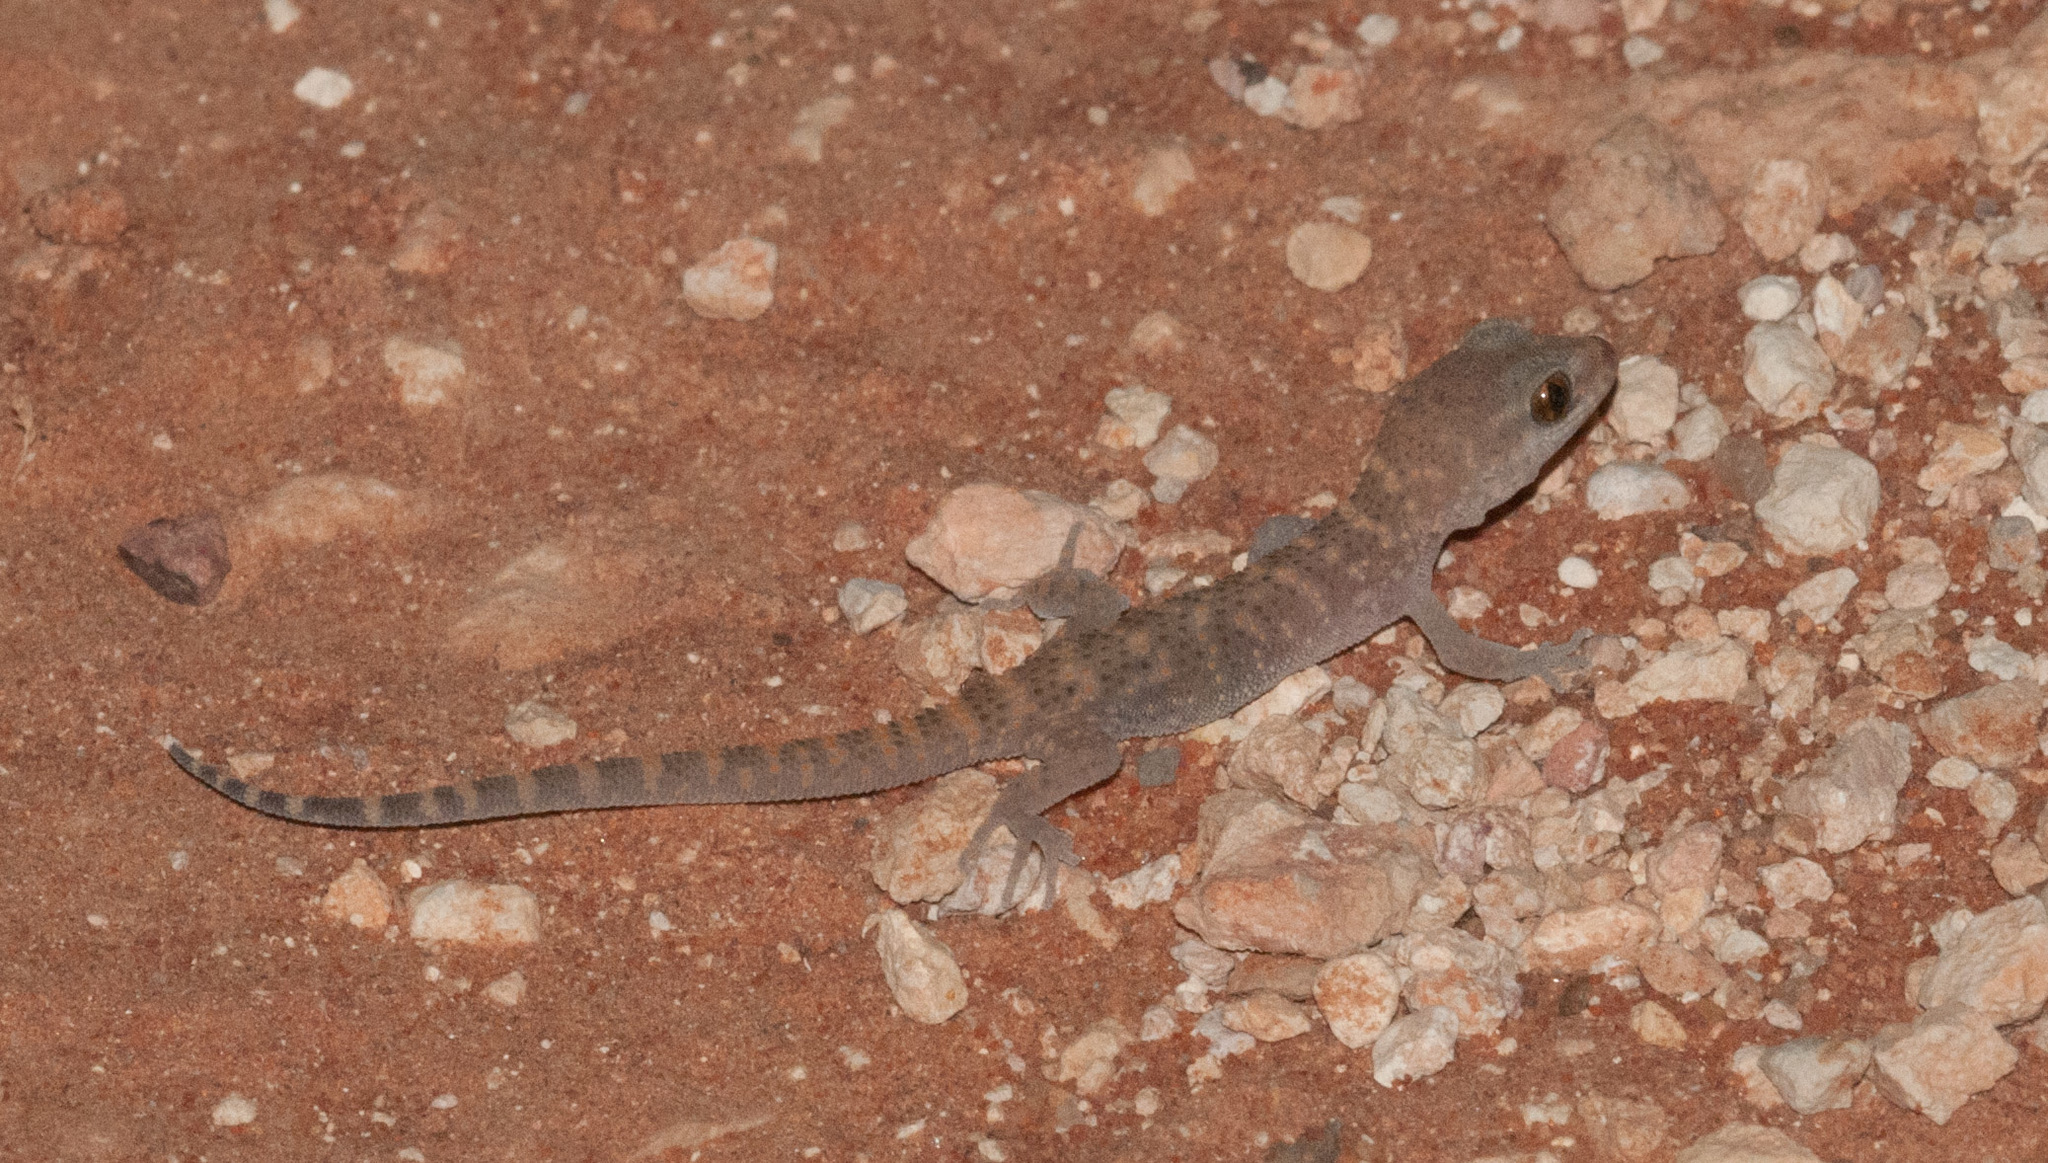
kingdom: Animalia
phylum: Chordata
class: Squamata
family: Gekkonidae
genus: Heteronotia
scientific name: Heteronotia binoei
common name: Bynoe's gecko
